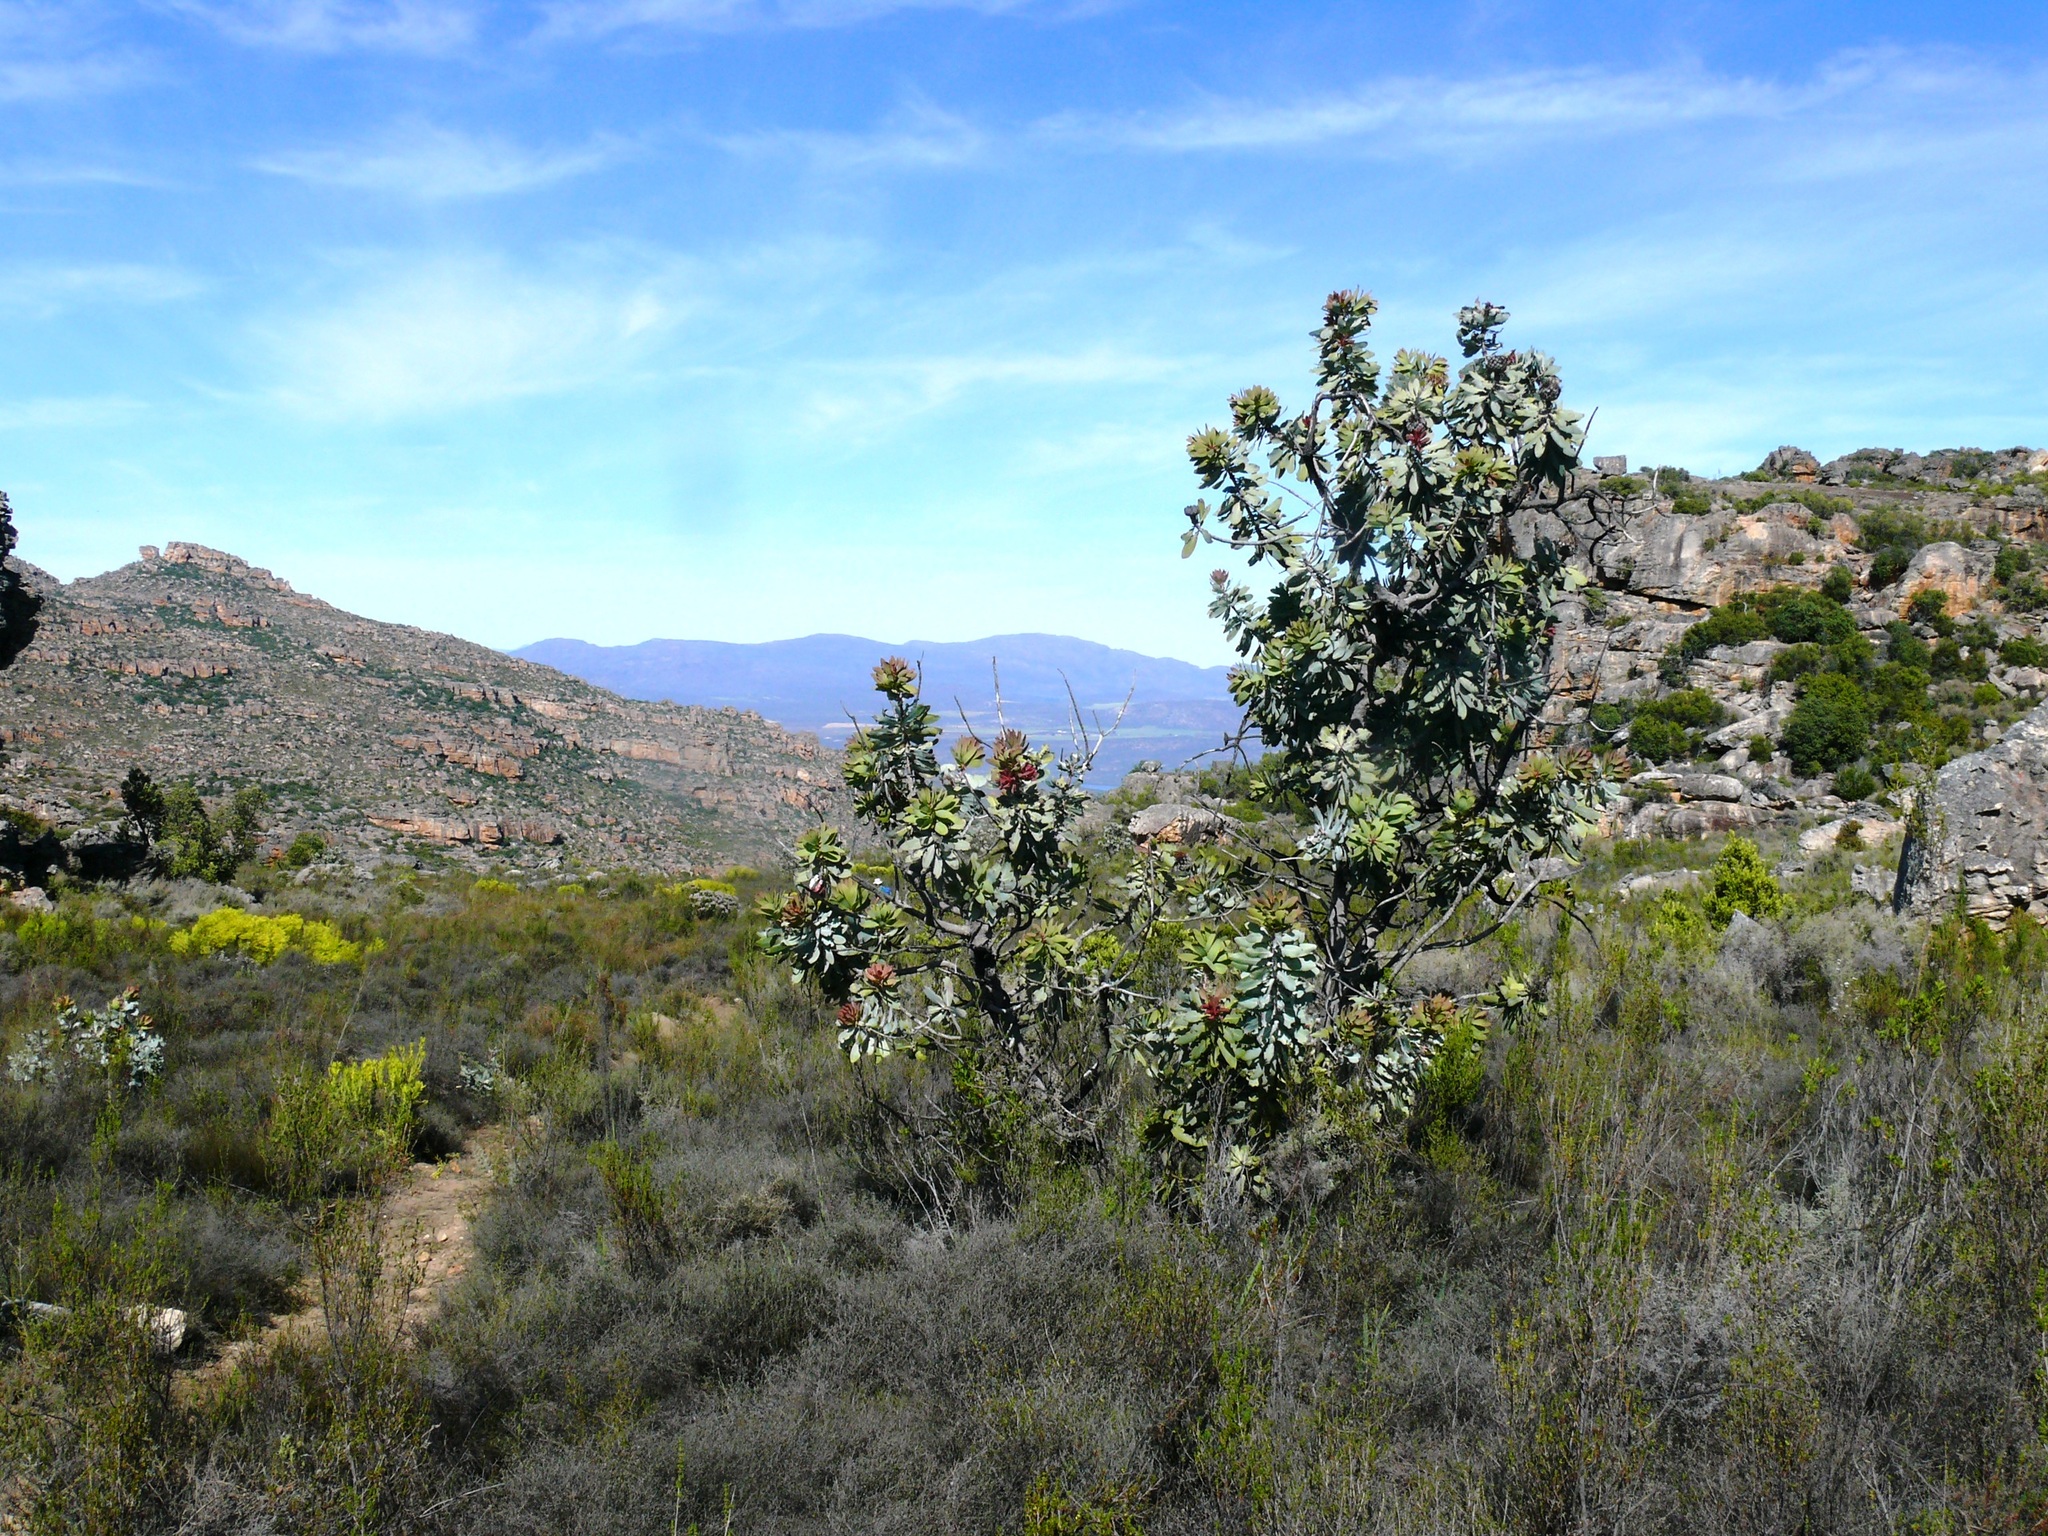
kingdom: Plantae
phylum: Tracheophyta
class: Magnoliopsida
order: Proteales
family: Proteaceae
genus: Protea
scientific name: Protea nitida
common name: Tree protea
